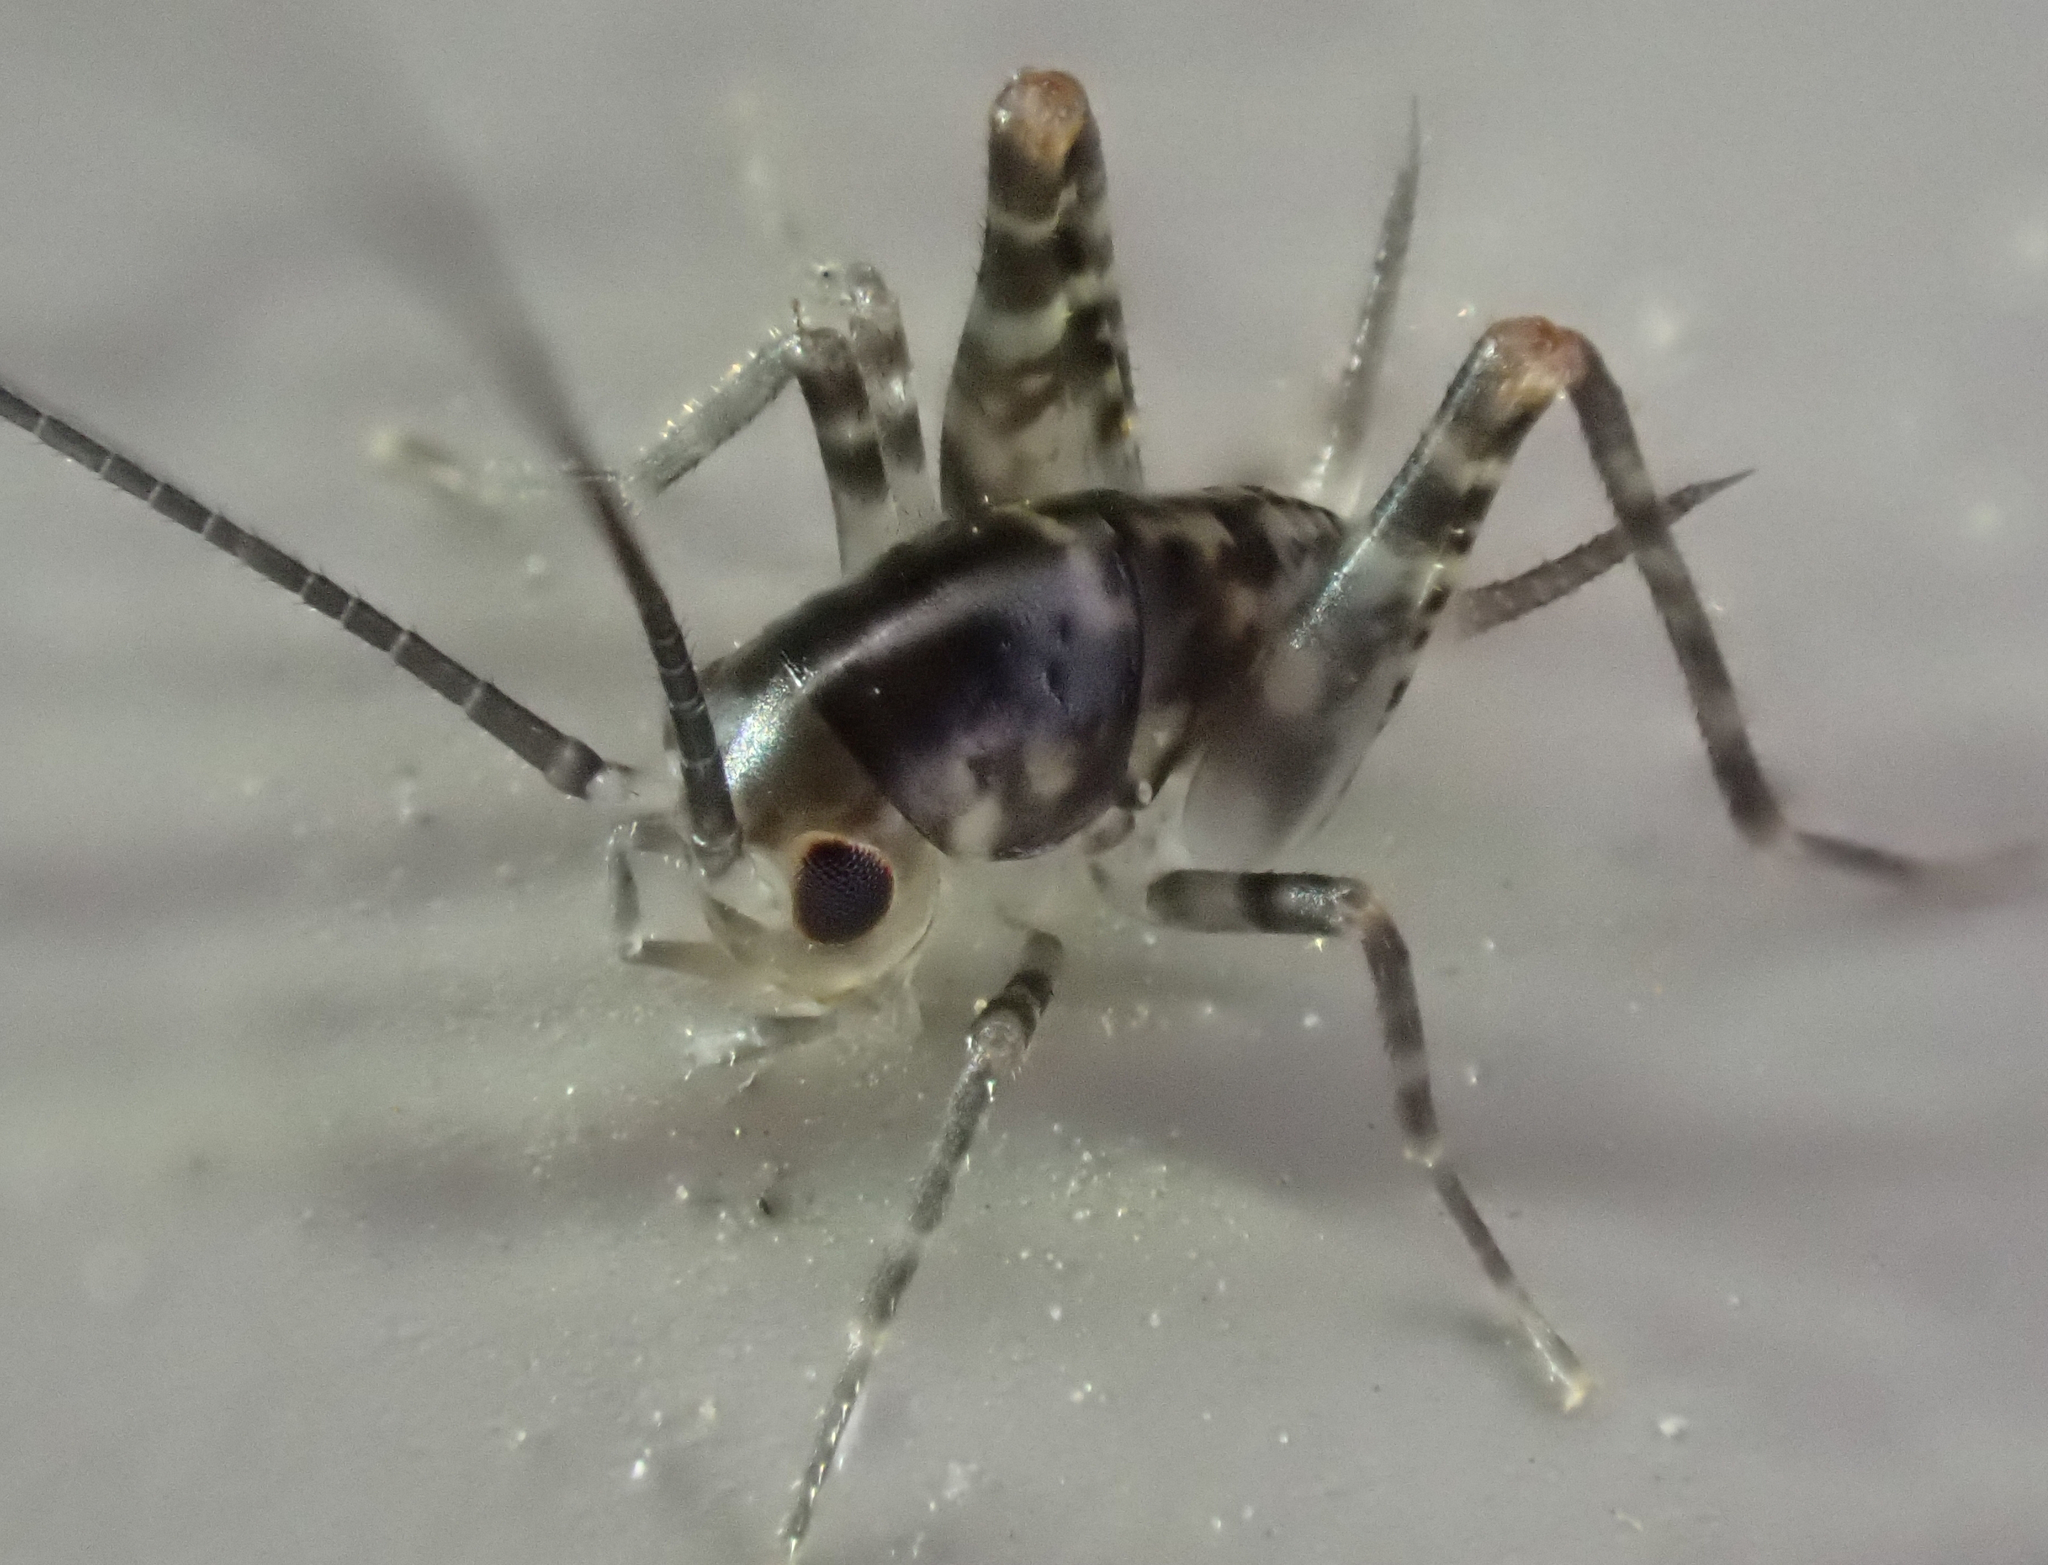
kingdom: Animalia
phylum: Arthropoda
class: Insecta
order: Orthoptera
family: Rhaphidophoridae
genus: Tachycines
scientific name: Tachycines asynamorus
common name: Greenhouse camel cricket
